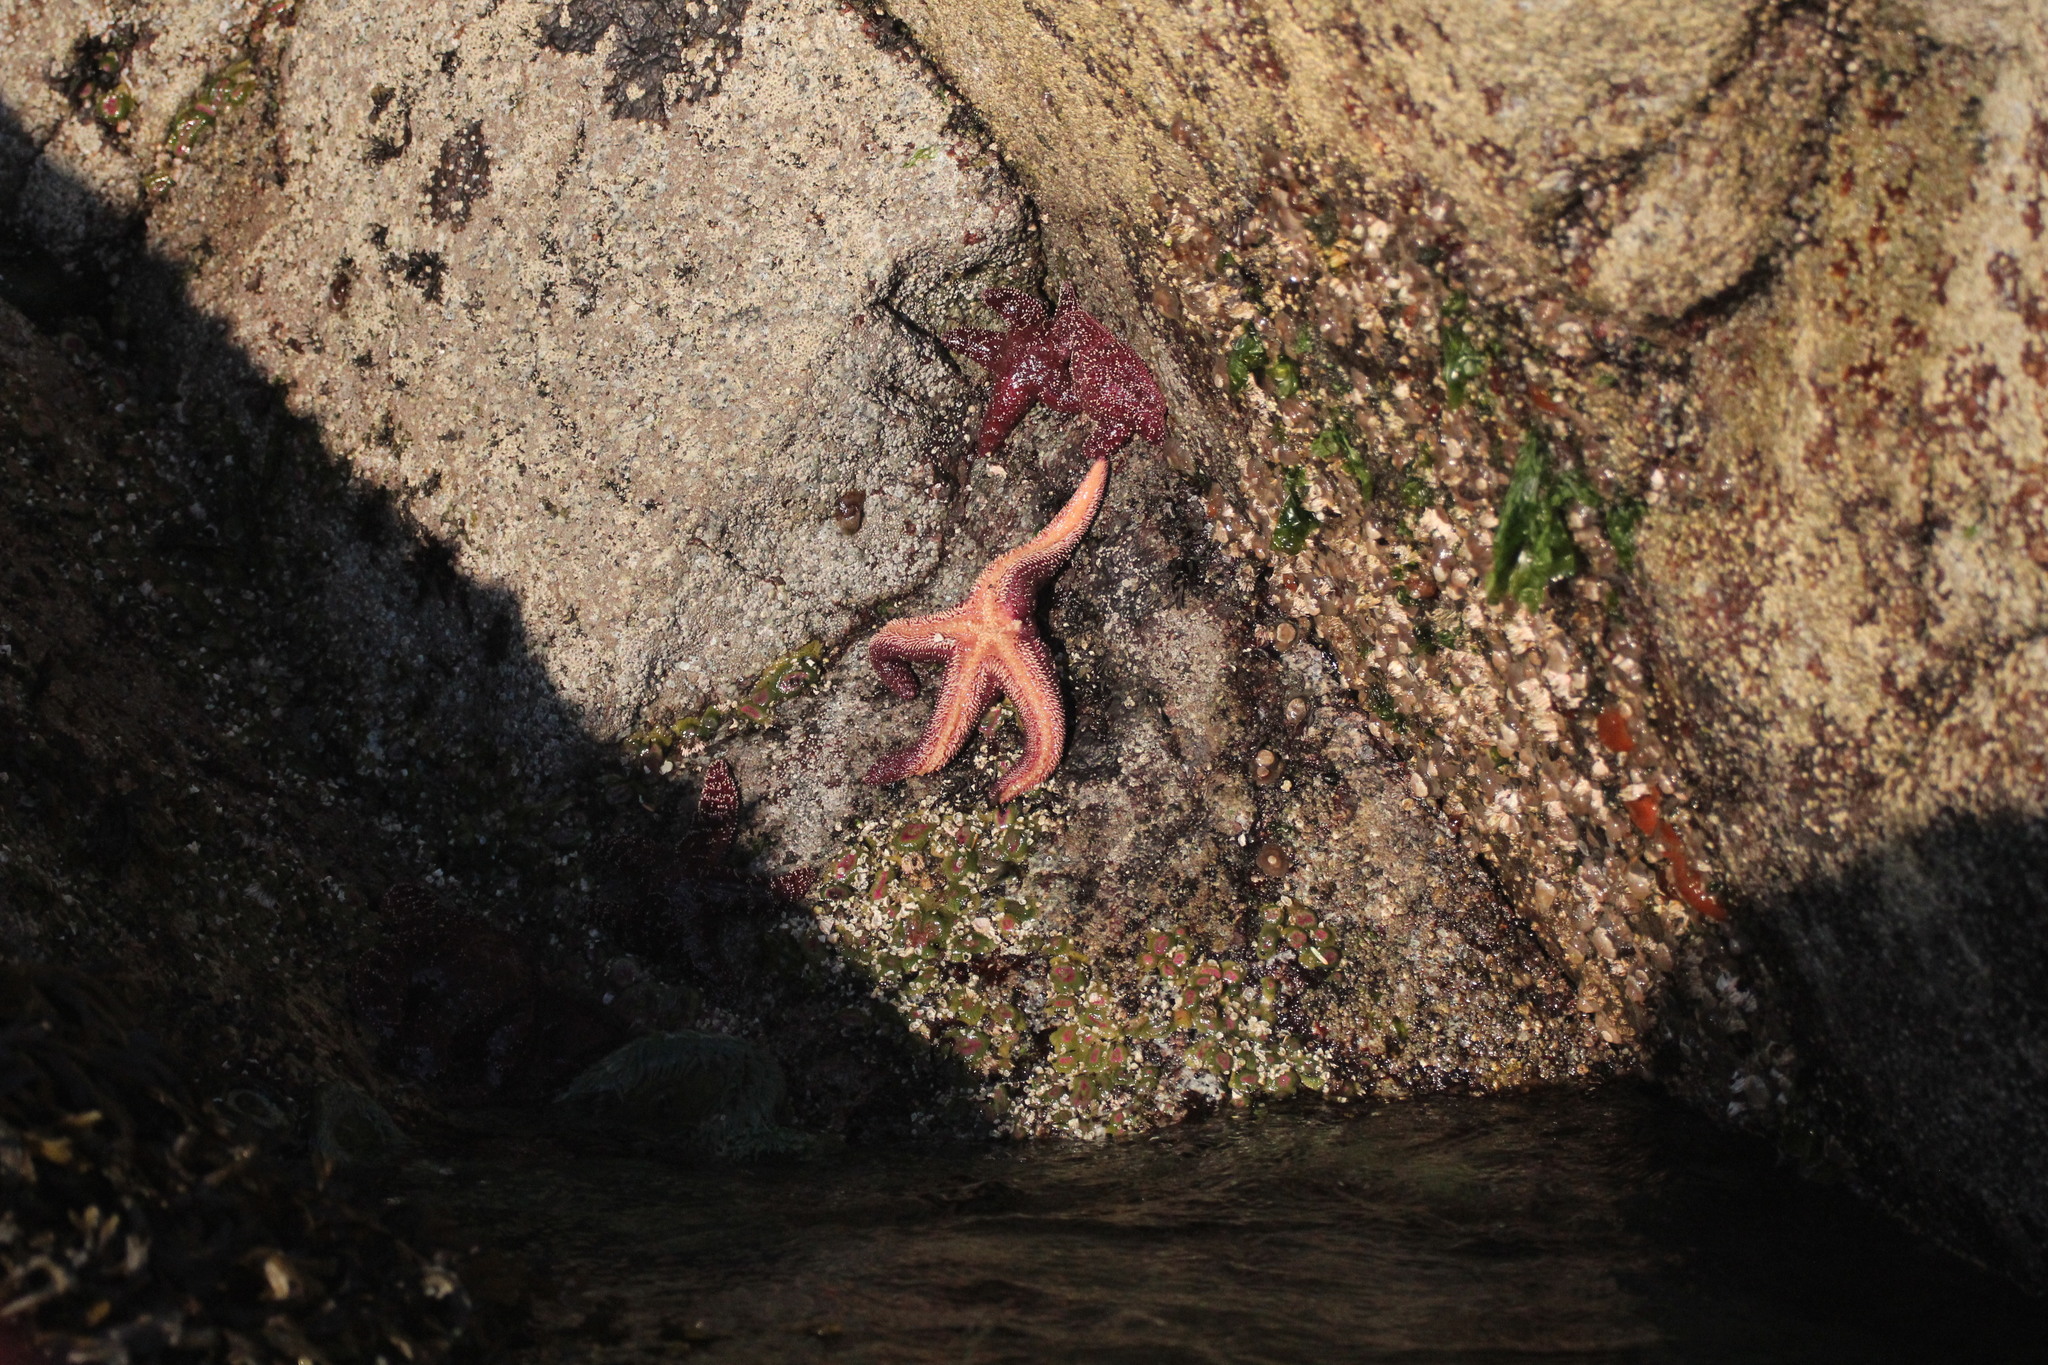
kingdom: Animalia
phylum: Echinodermata
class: Asteroidea
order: Forcipulatida
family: Asteriidae
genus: Pisaster
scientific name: Pisaster ochraceus
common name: Ochre stars
